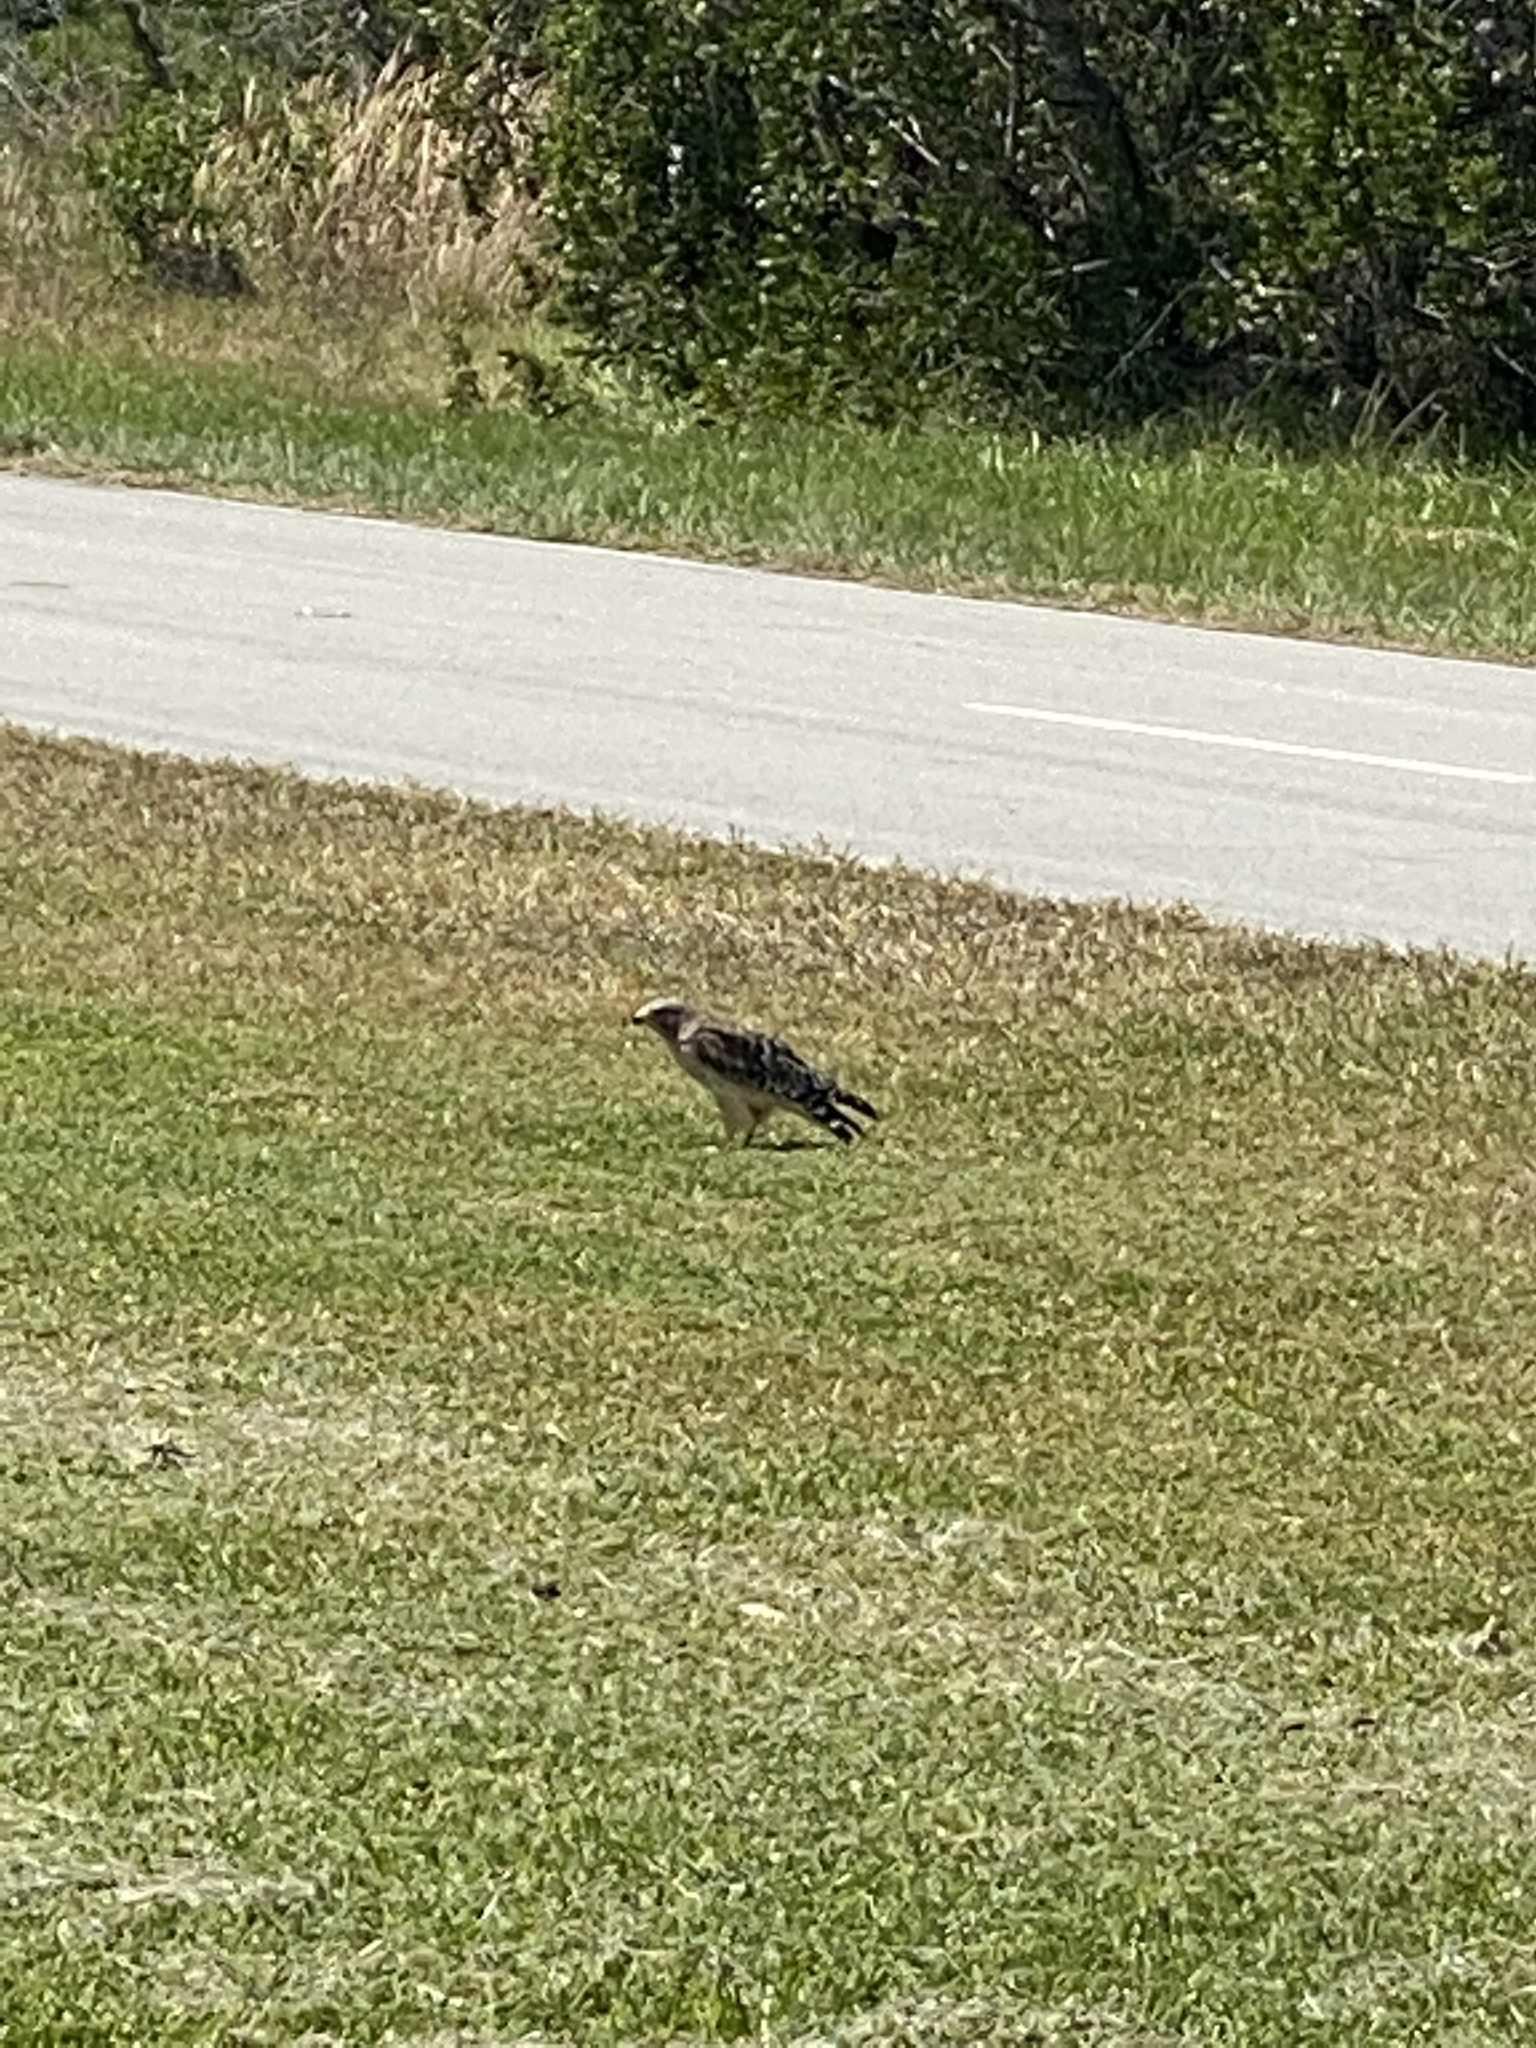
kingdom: Animalia
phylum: Chordata
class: Aves
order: Accipitriformes
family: Accipitridae
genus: Buteo
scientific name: Buteo lineatus
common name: Red-shouldered hawk
